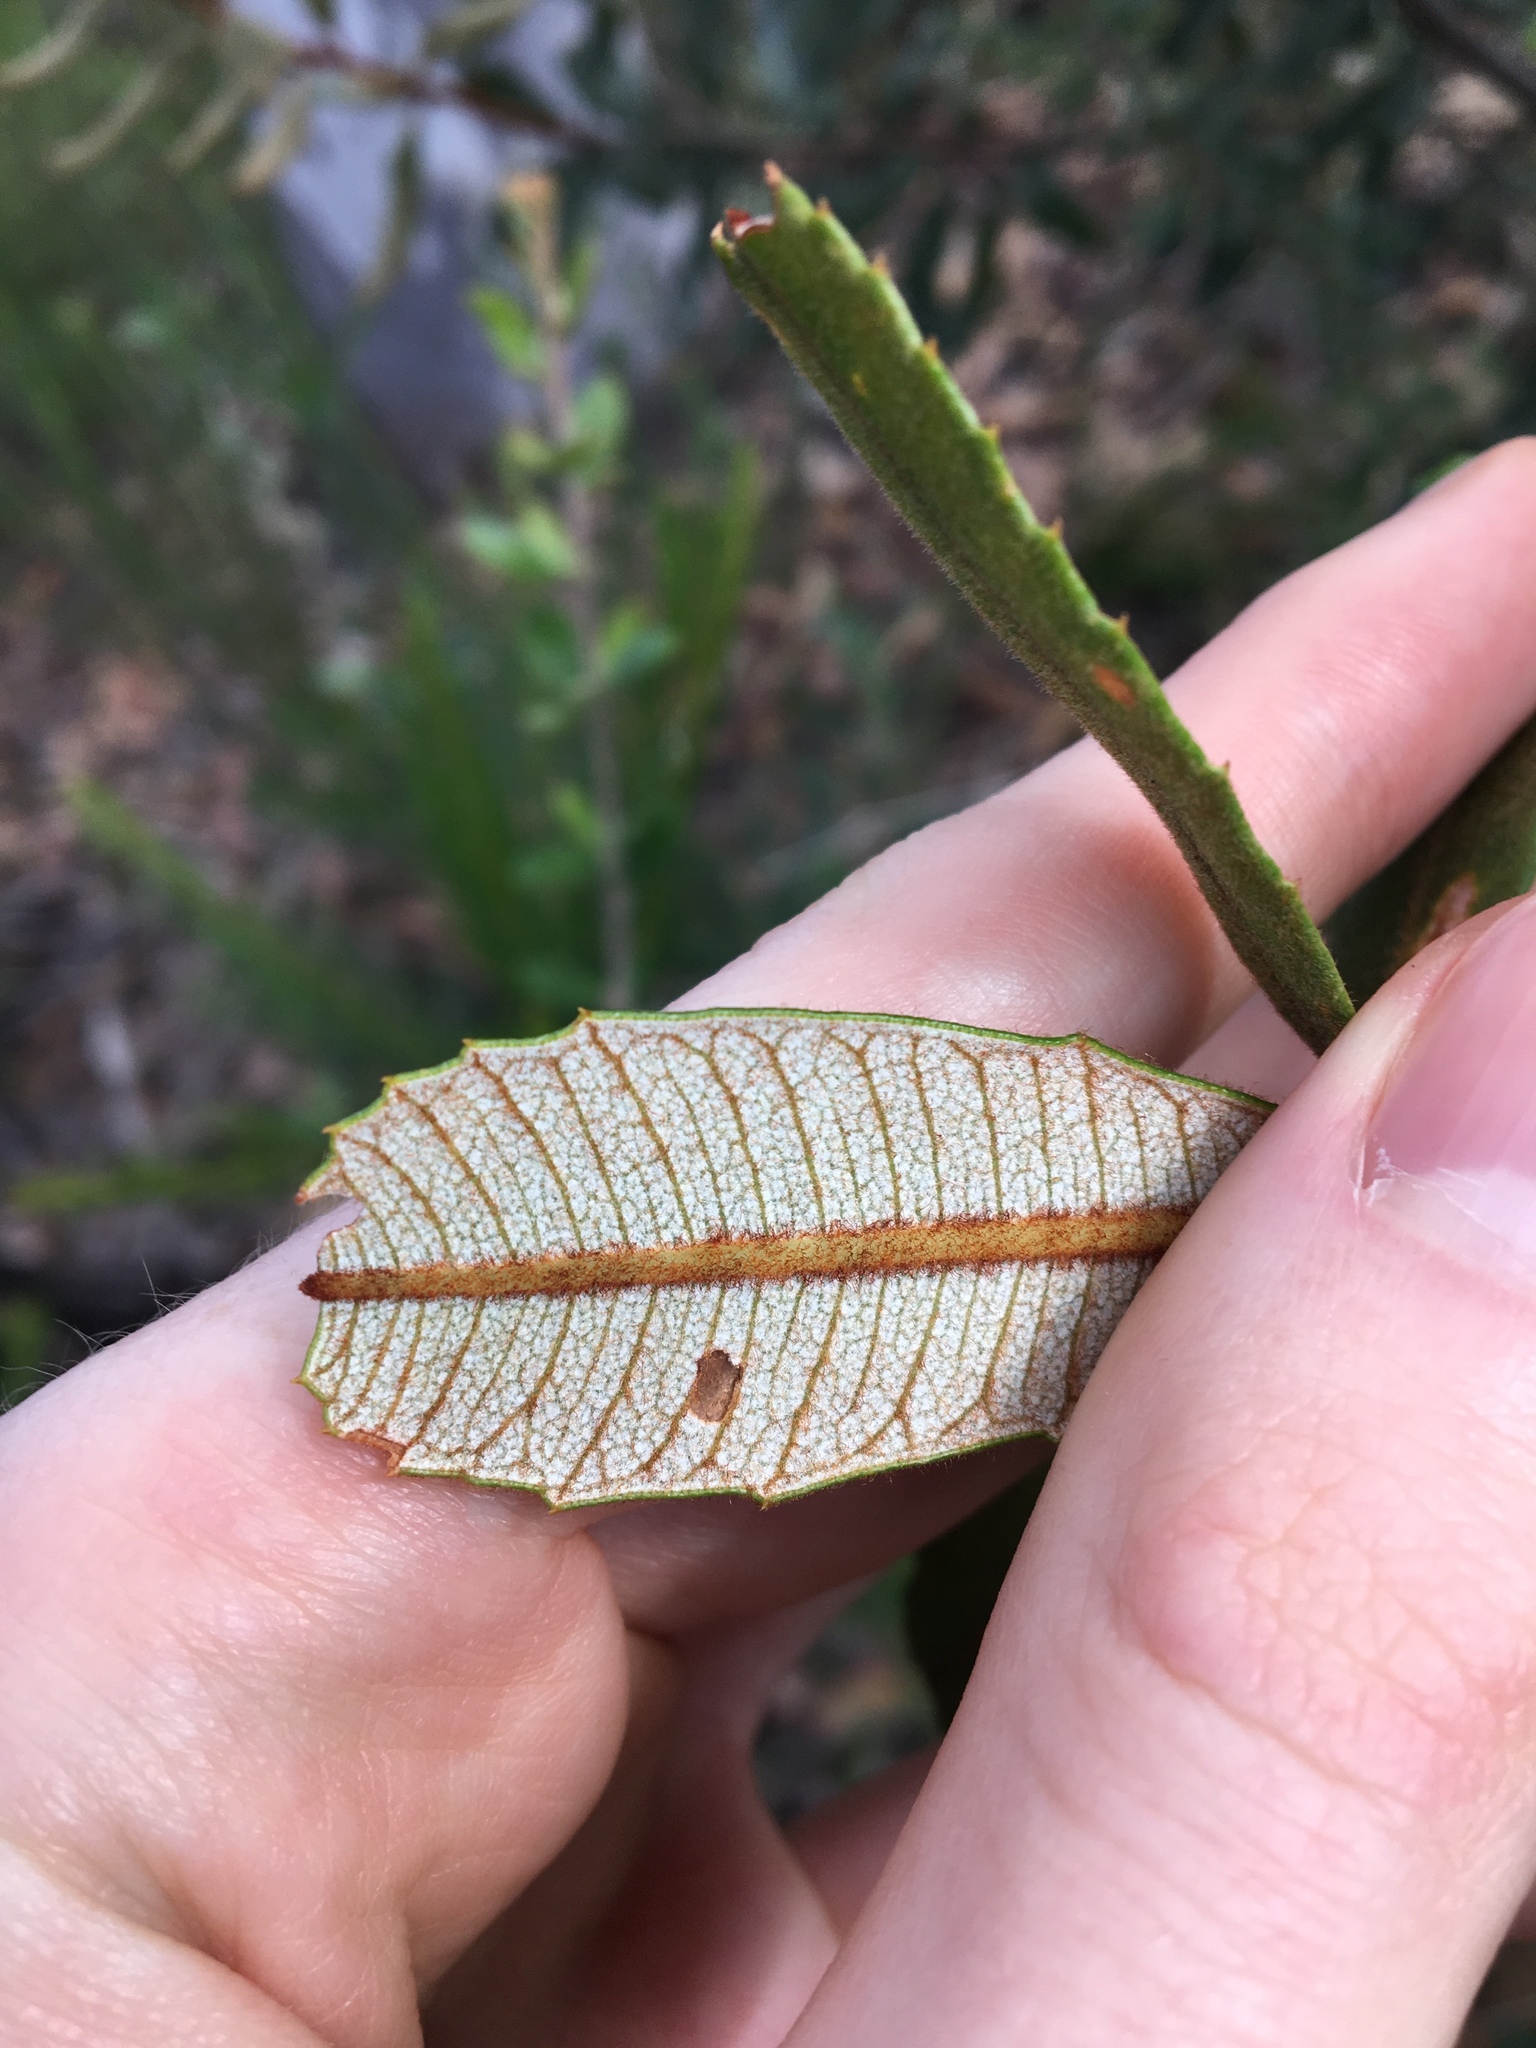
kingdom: Plantae
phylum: Tracheophyta
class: Magnoliopsida
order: Proteales
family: Proteaceae
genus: Banksia
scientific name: Banksia oblongifolia
